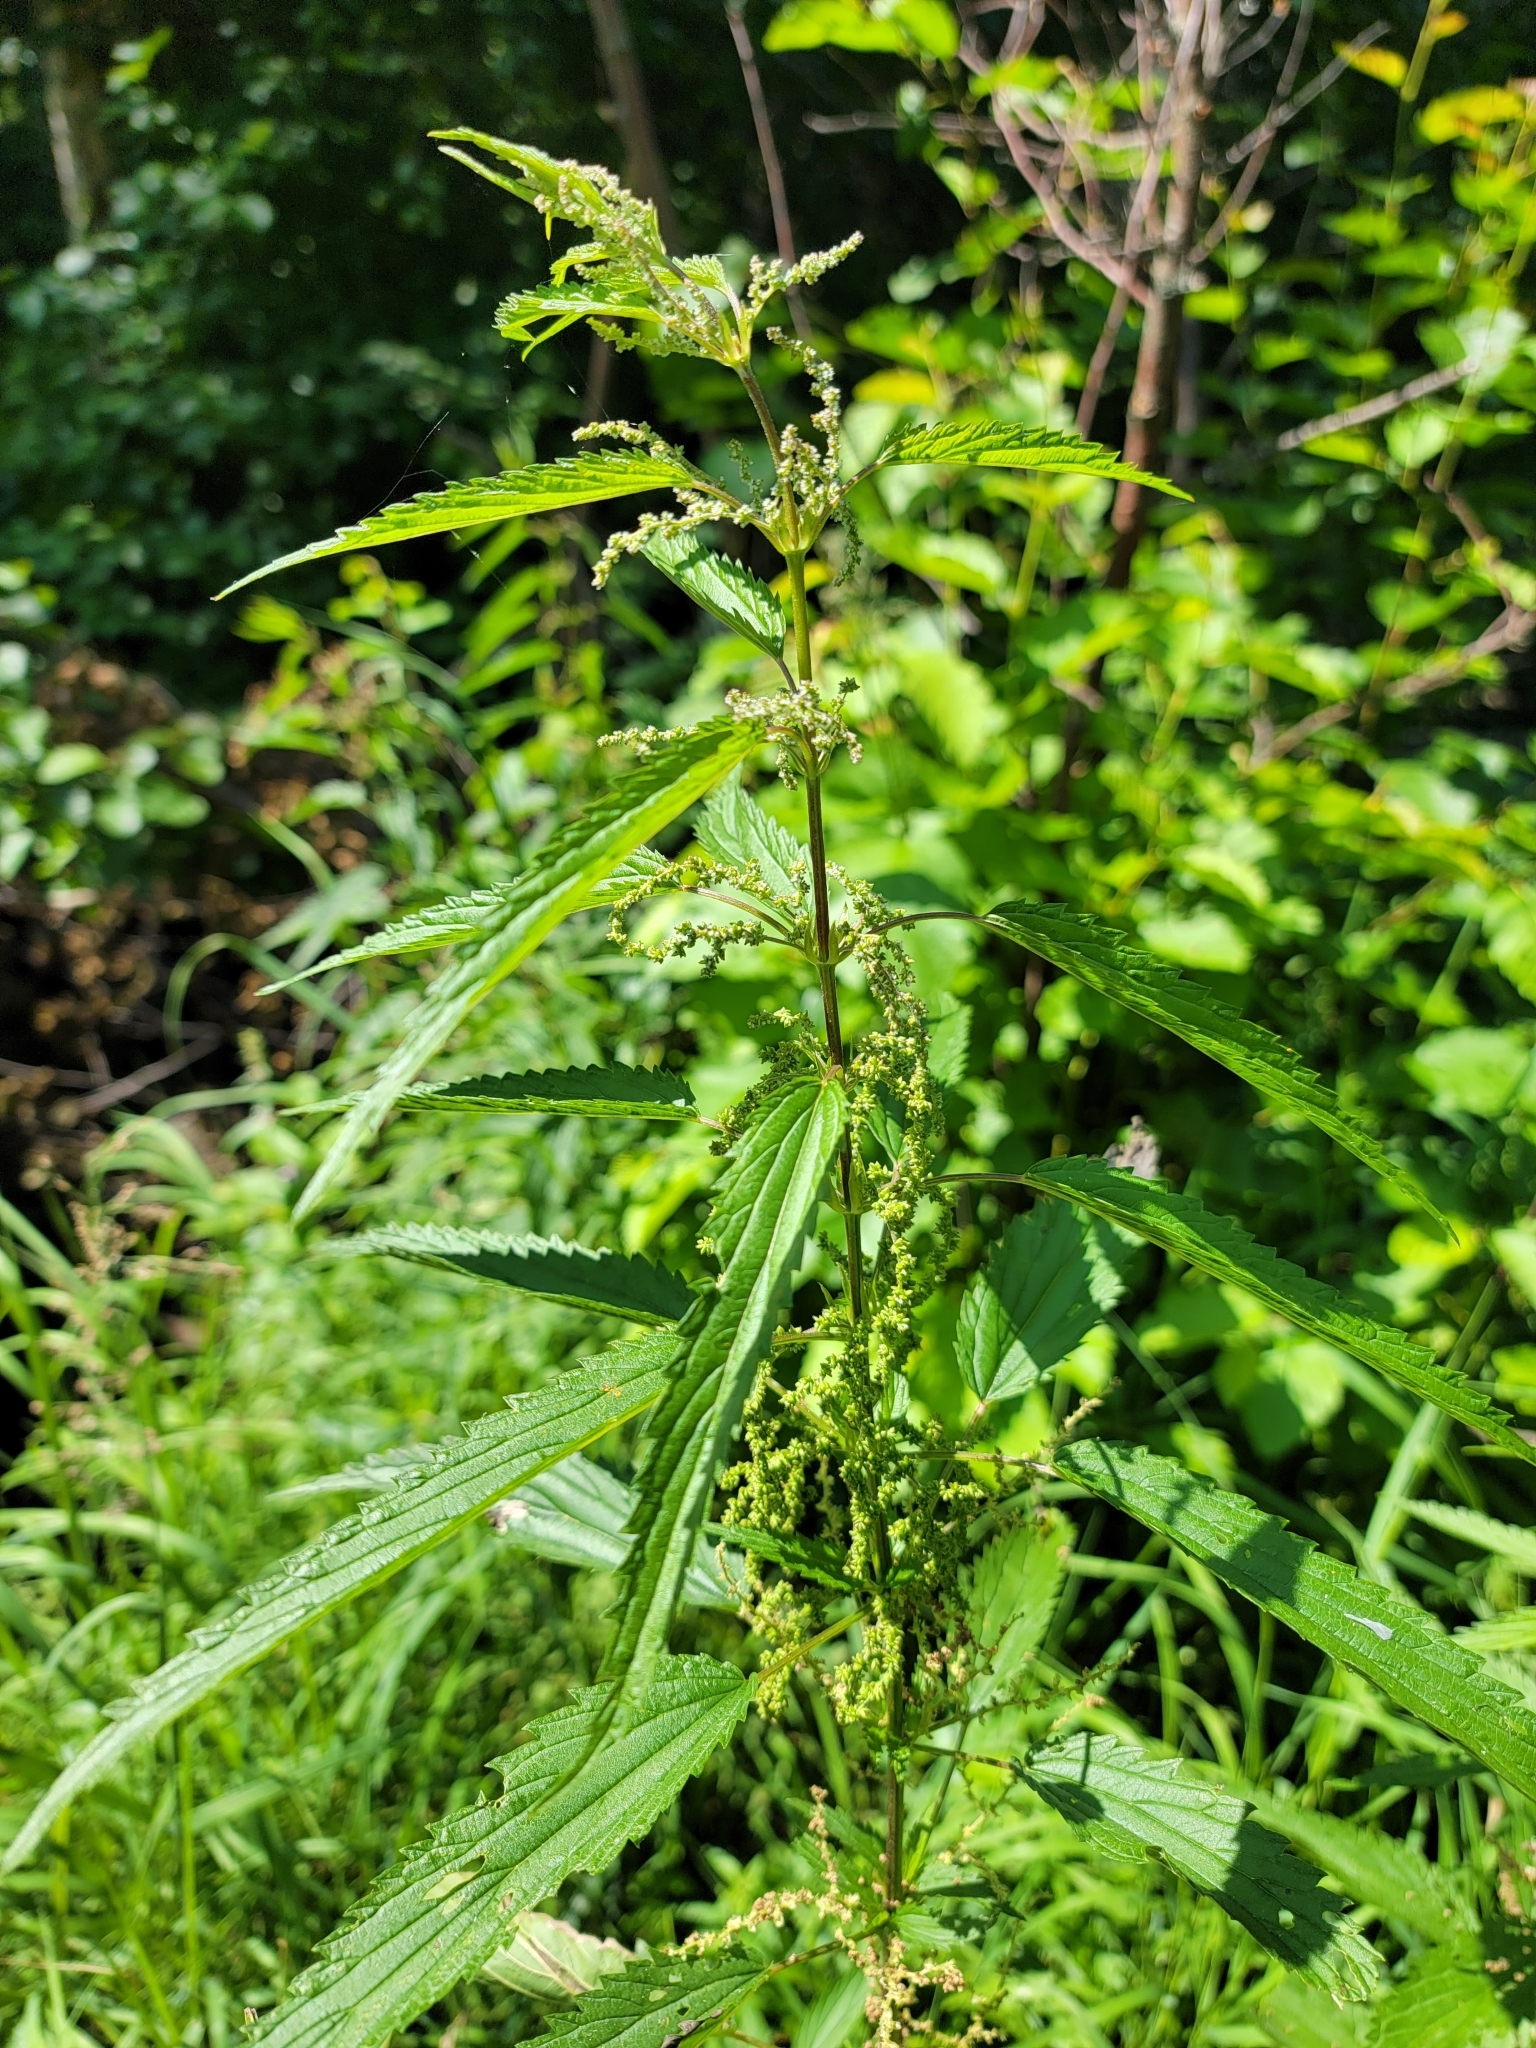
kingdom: Plantae
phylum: Tracheophyta
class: Magnoliopsida
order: Rosales
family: Urticaceae
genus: Urtica
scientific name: Urtica gracilis
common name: Slender stinging nettle
